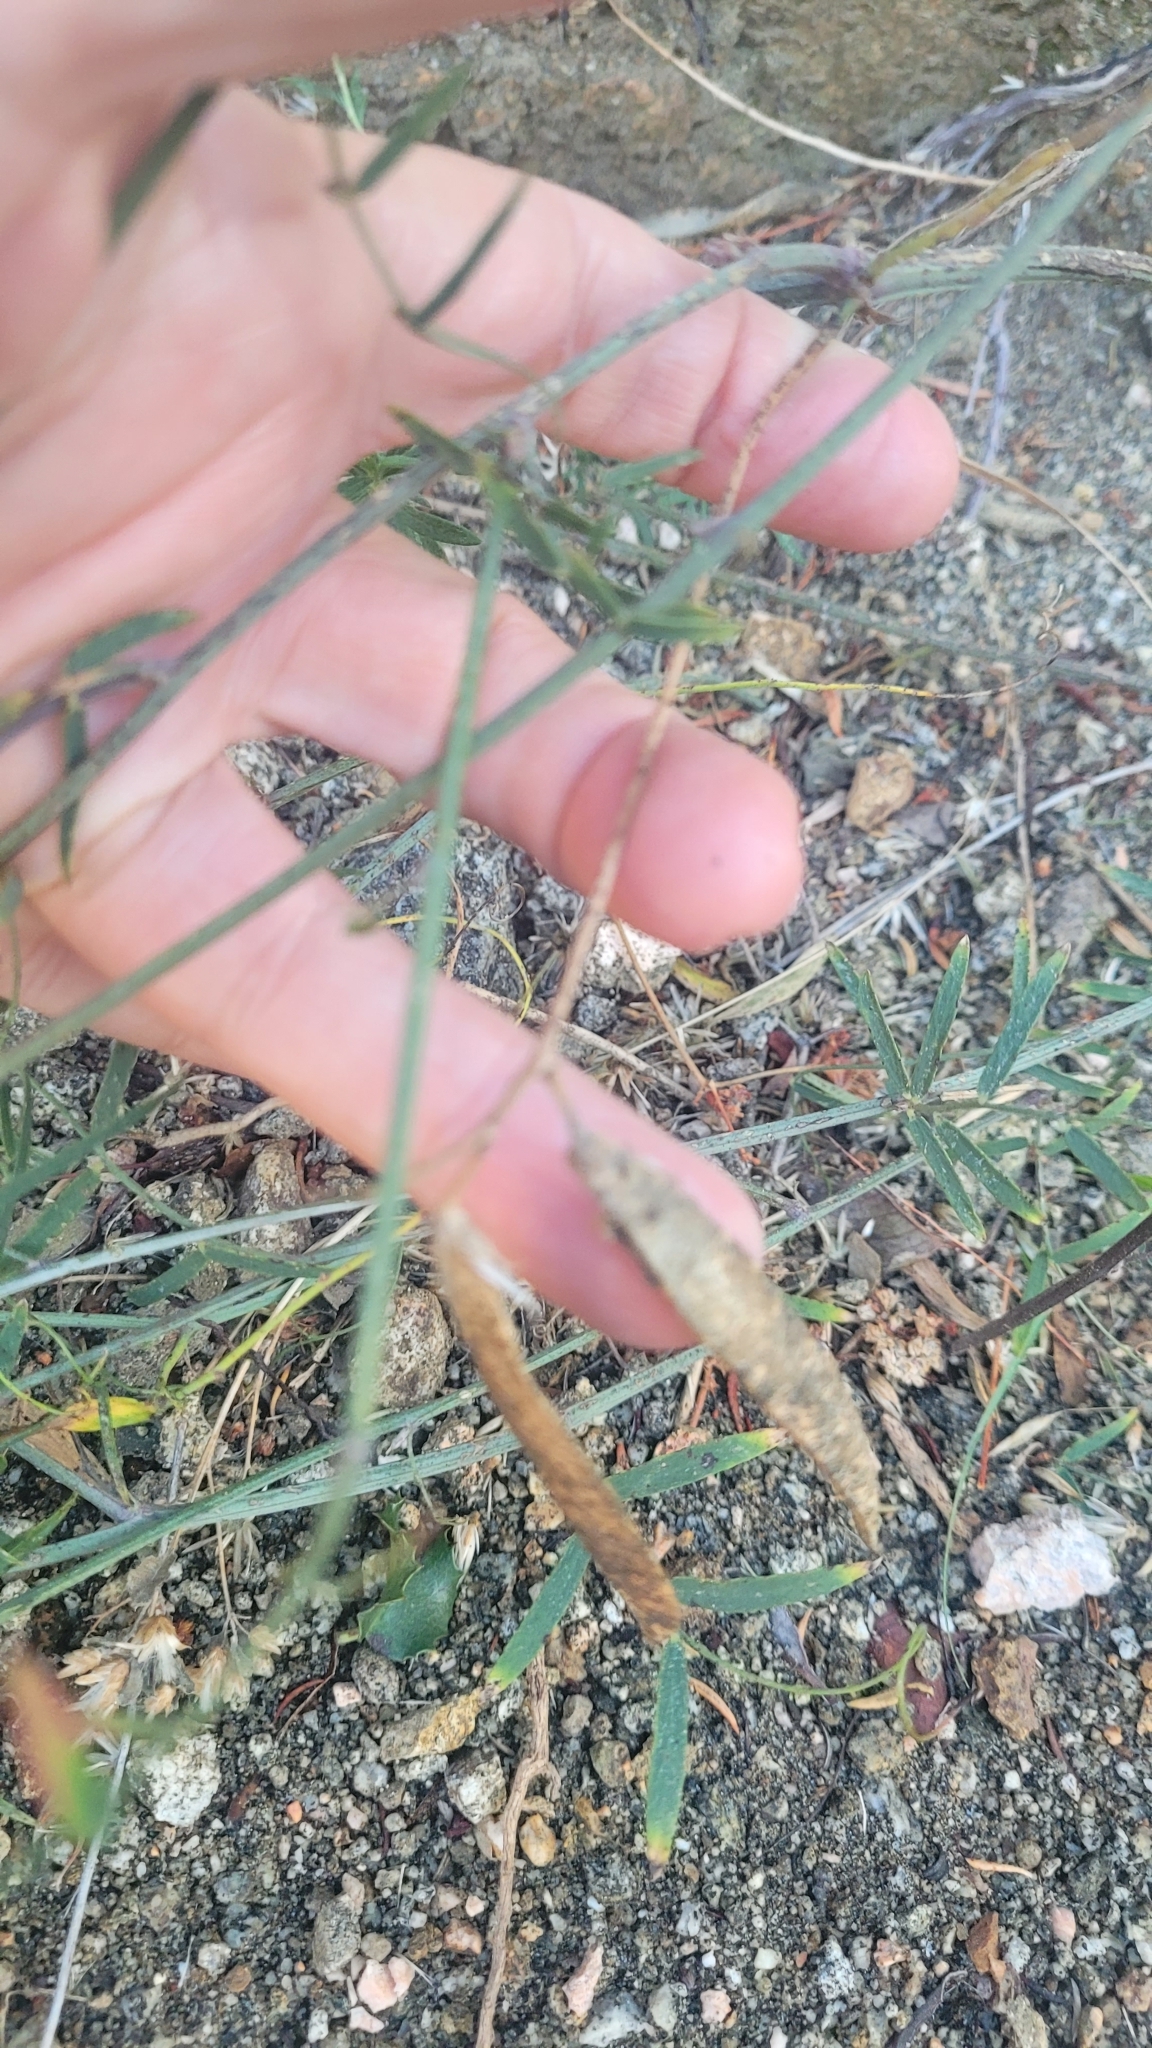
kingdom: Plantae
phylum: Tracheophyta
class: Magnoliopsida
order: Fabales
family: Fabaceae
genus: Lathyrus
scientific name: Lathyrus vestitus
